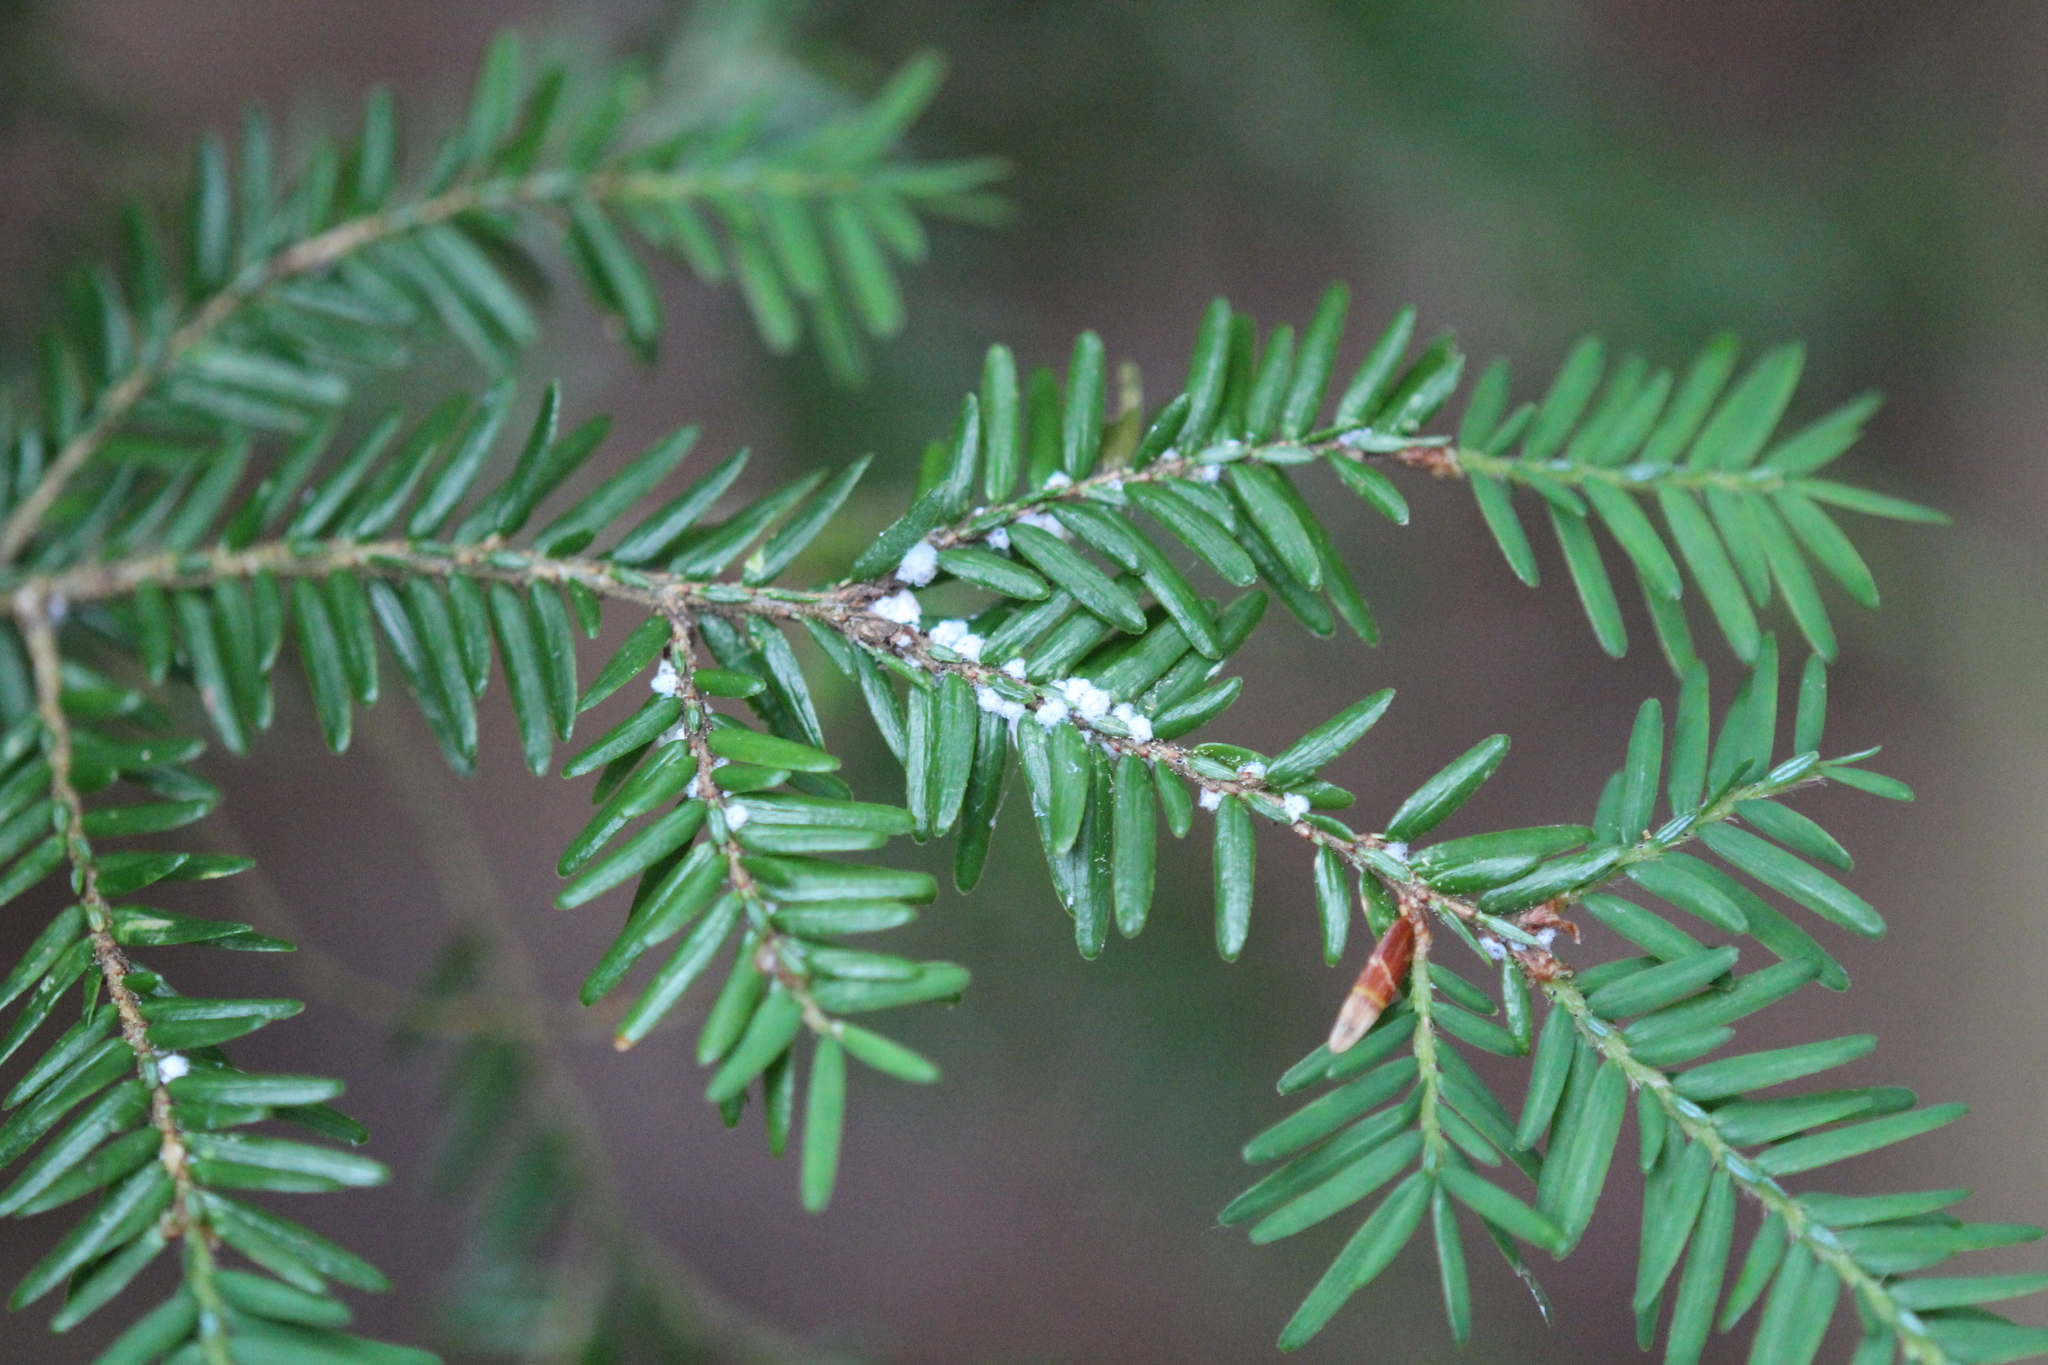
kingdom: Animalia
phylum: Arthropoda
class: Insecta
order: Hemiptera
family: Adelgidae
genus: Adelges
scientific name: Adelges tsugae
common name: Hemlock woolly adelgid
